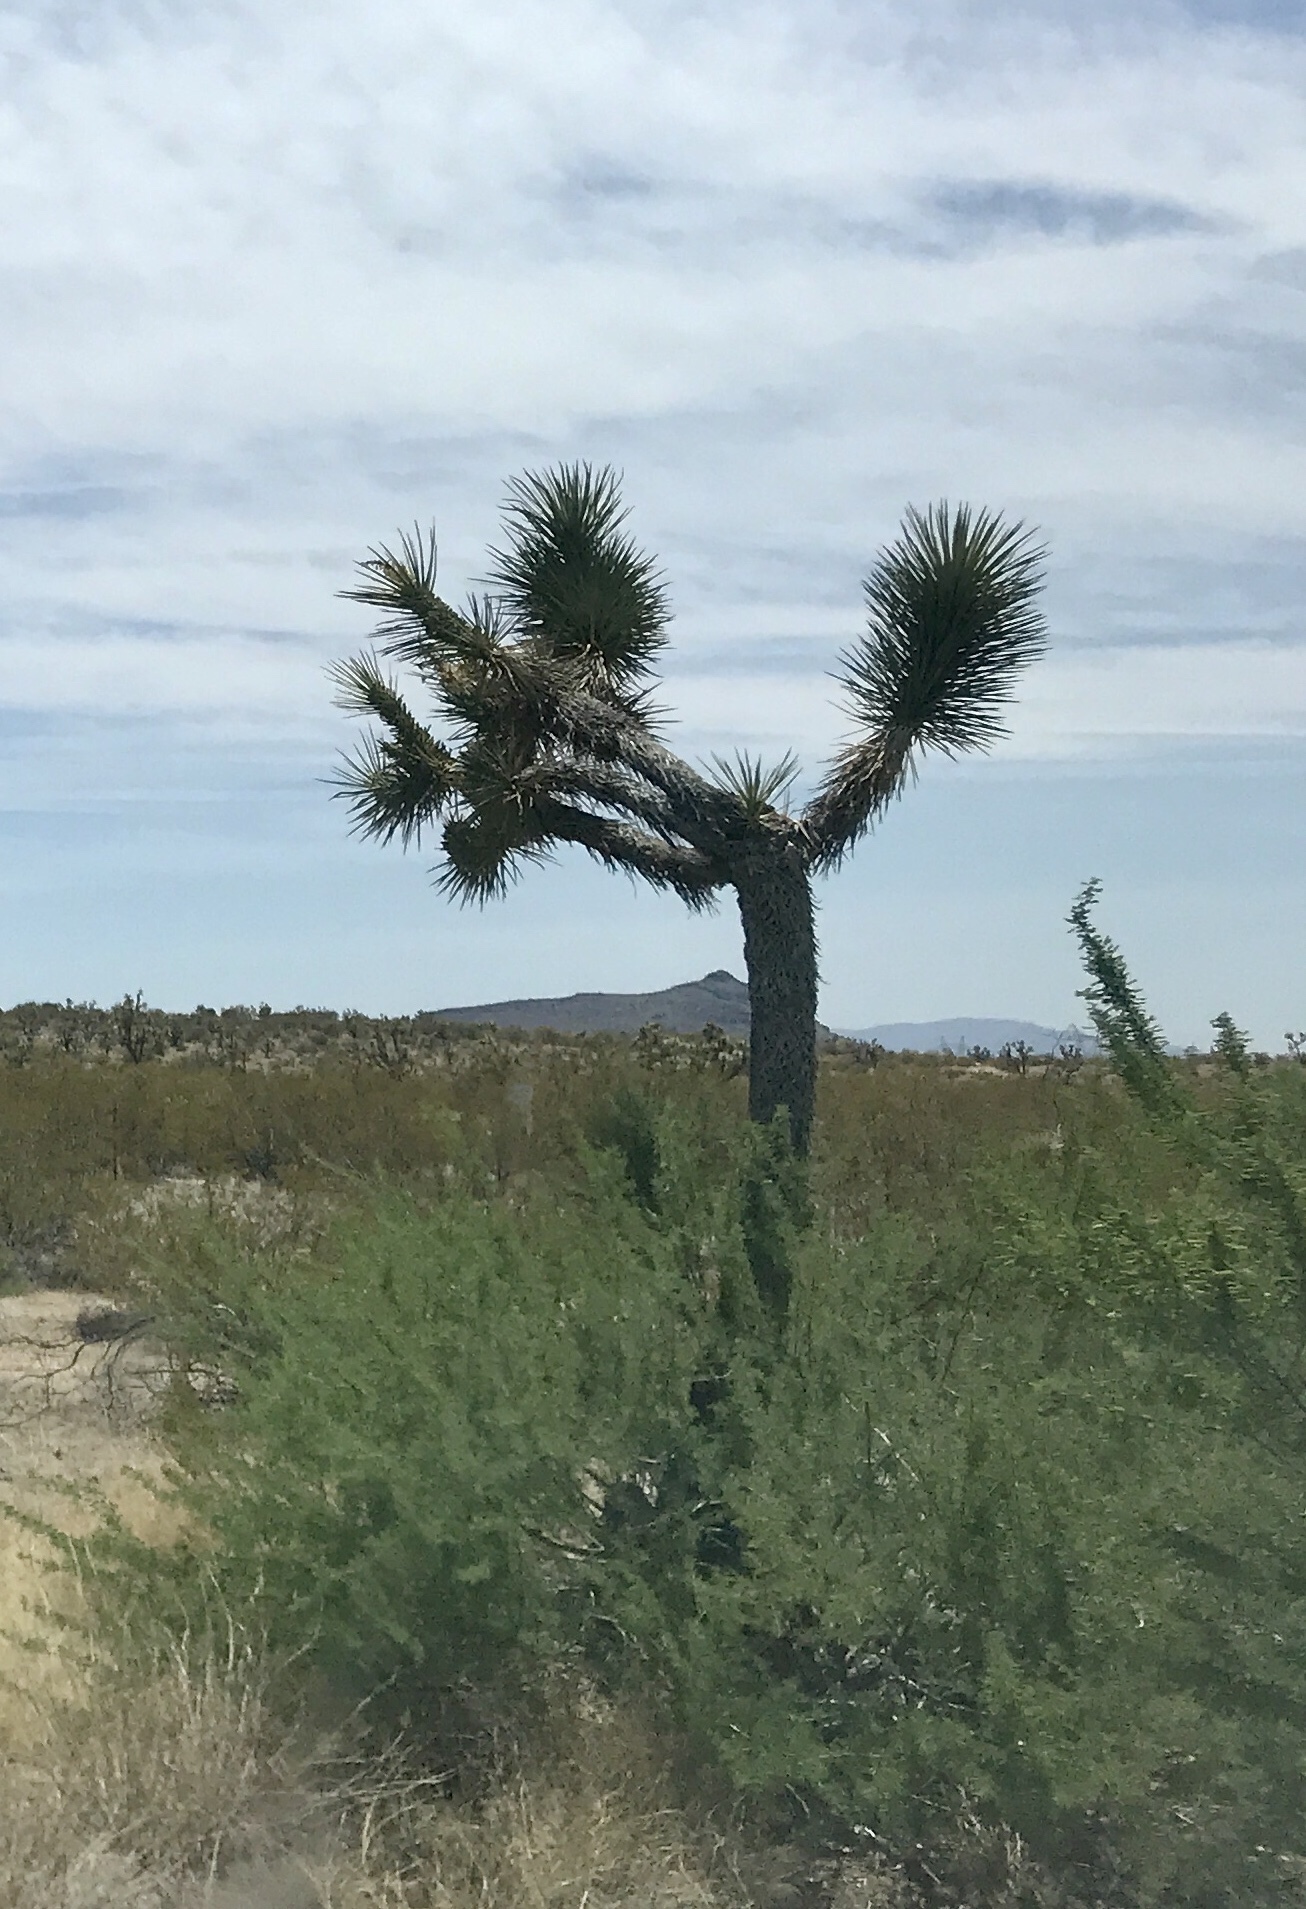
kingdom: Plantae
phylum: Tracheophyta
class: Liliopsida
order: Asparagales
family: Asparagaceae
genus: Yucca
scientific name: Yucca brevifolia
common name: Joshua tree
